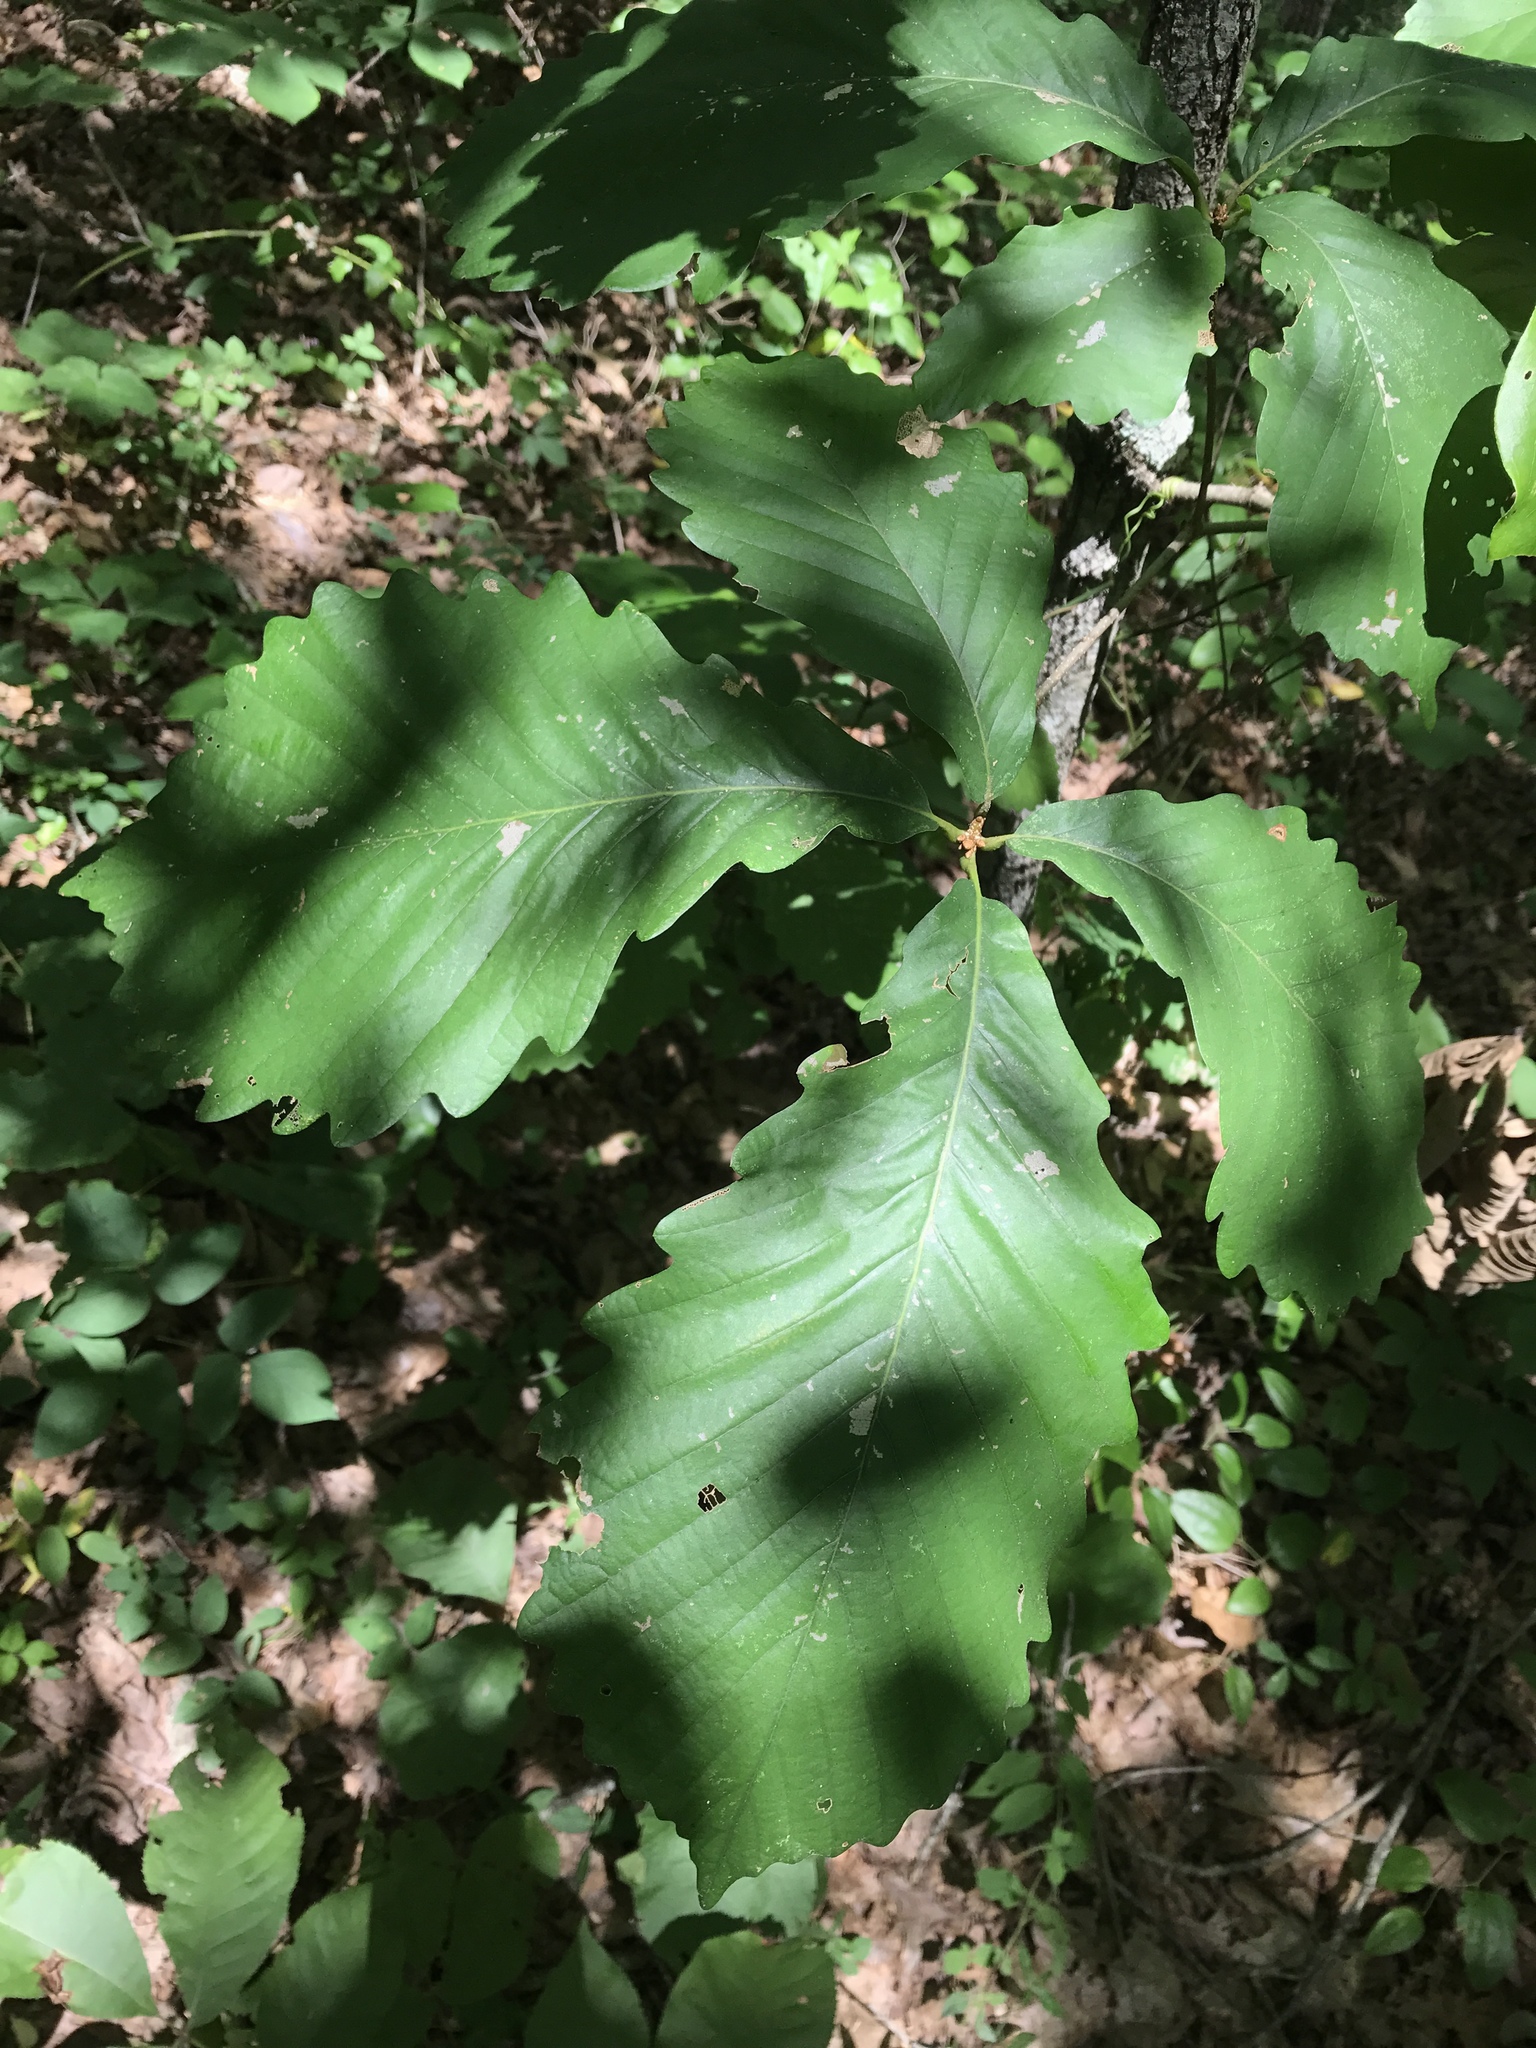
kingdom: Plantae
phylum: Tracheophyta
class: Magnoliopsida
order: Fagales
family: Fagaceae
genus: Quercus
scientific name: Quercus montana
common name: Chestnut oak
